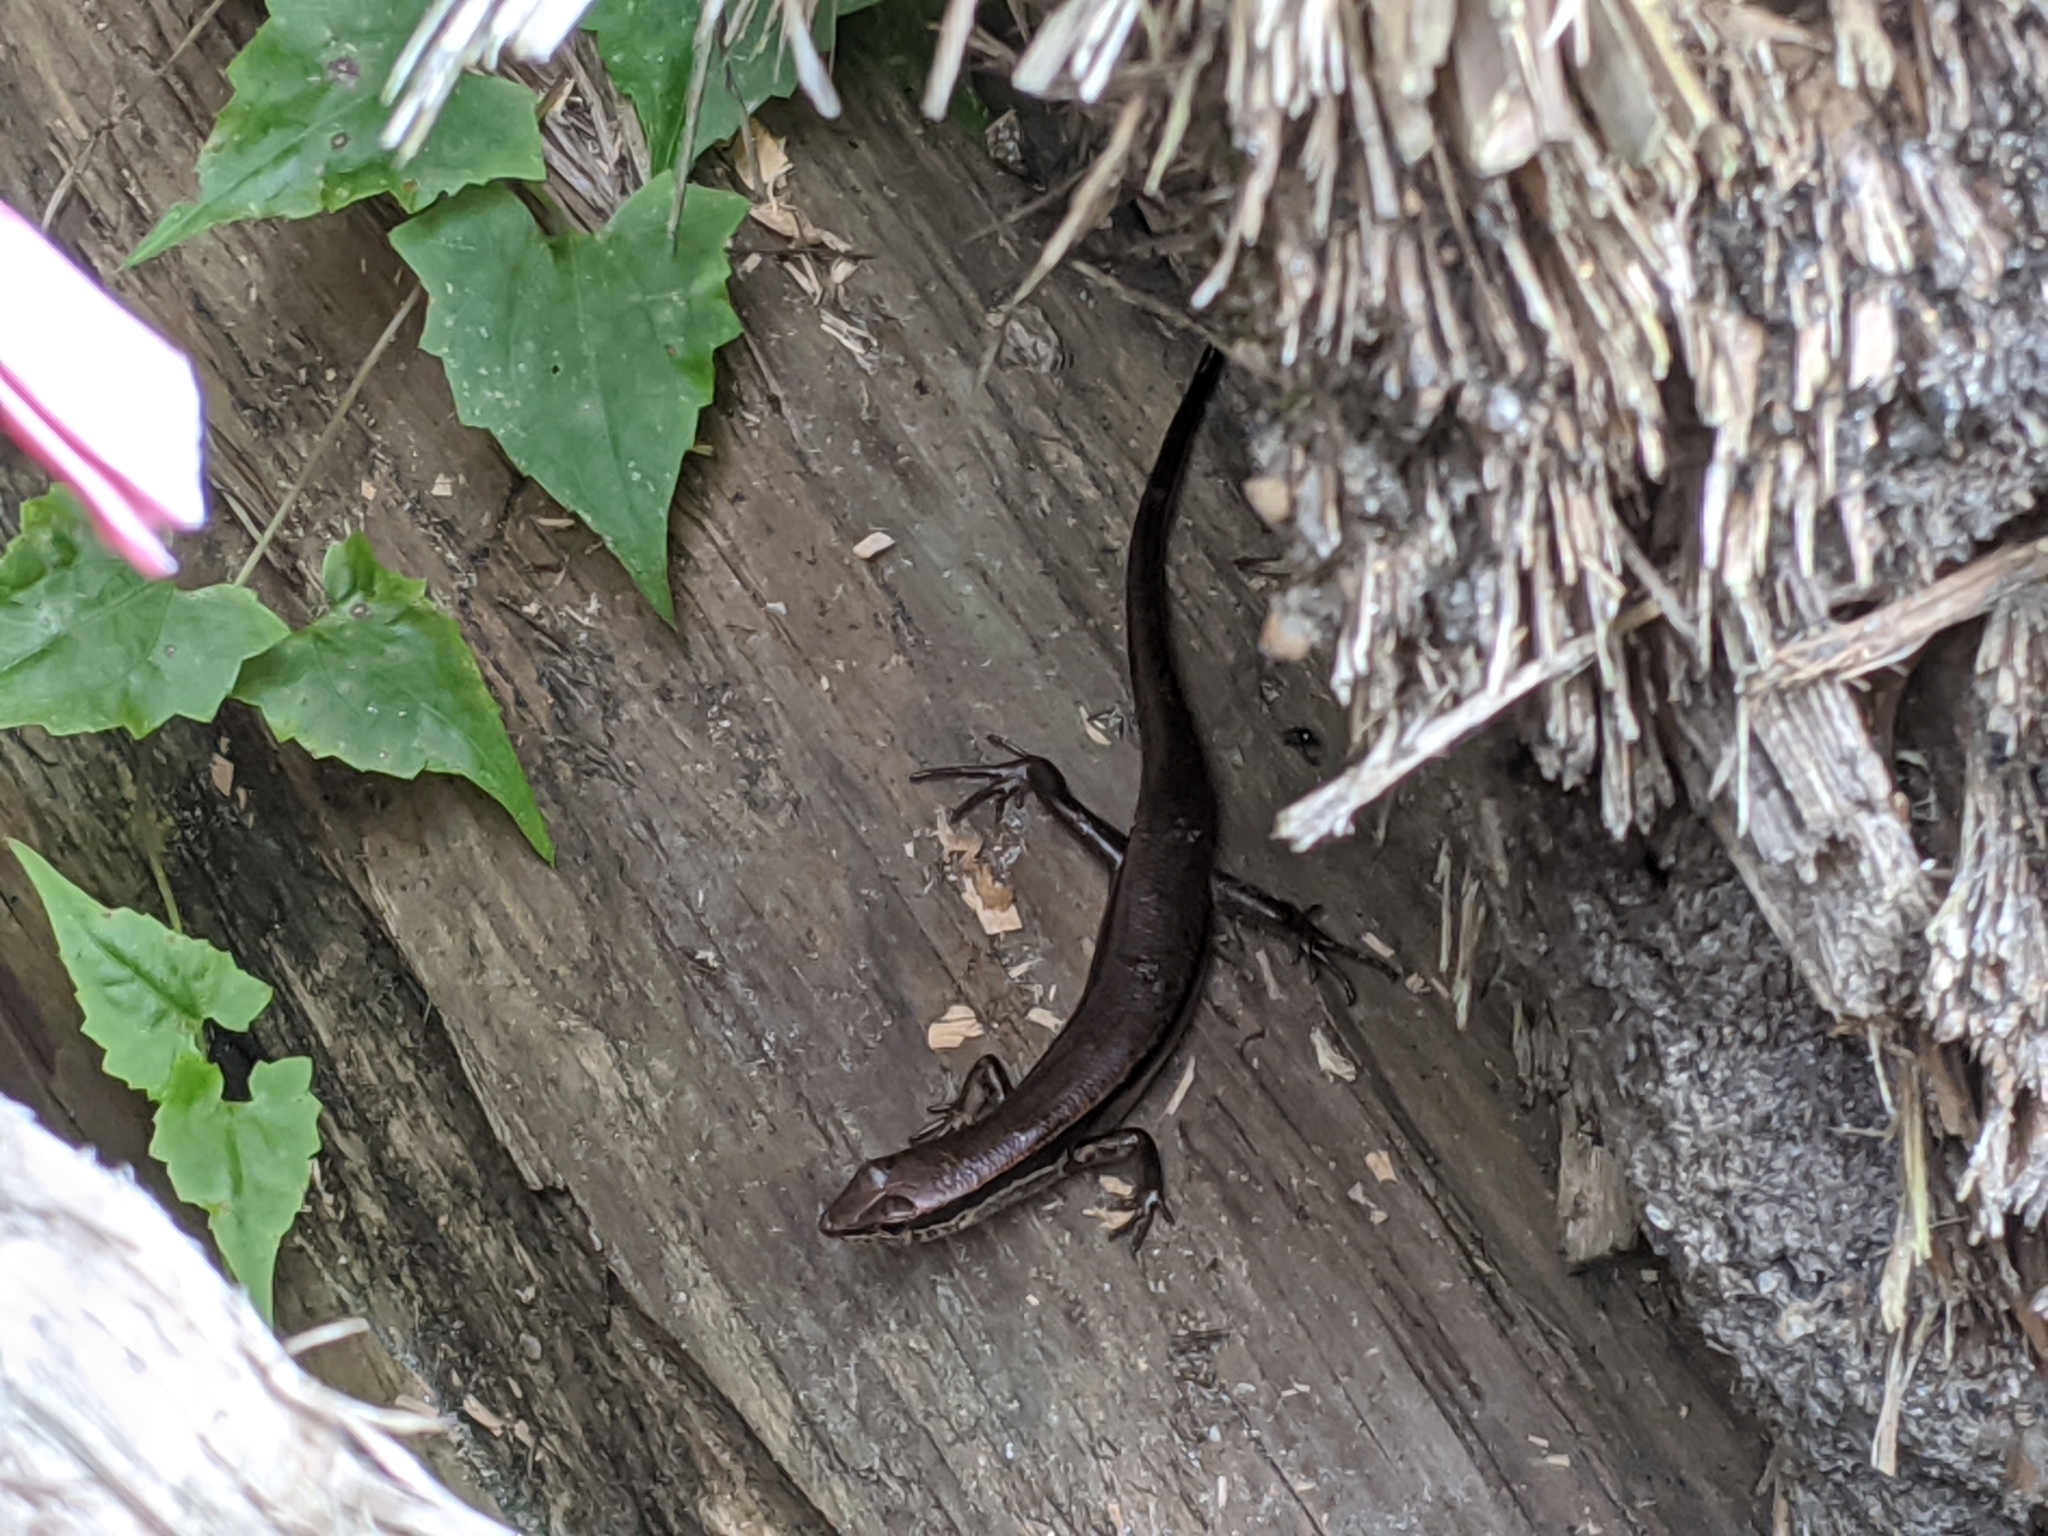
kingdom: Animalia
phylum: Chordata
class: Squamata
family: Scincidae
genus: Sphenomorphus
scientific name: Sphenomorphus indicus
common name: Himalayan forest skink
